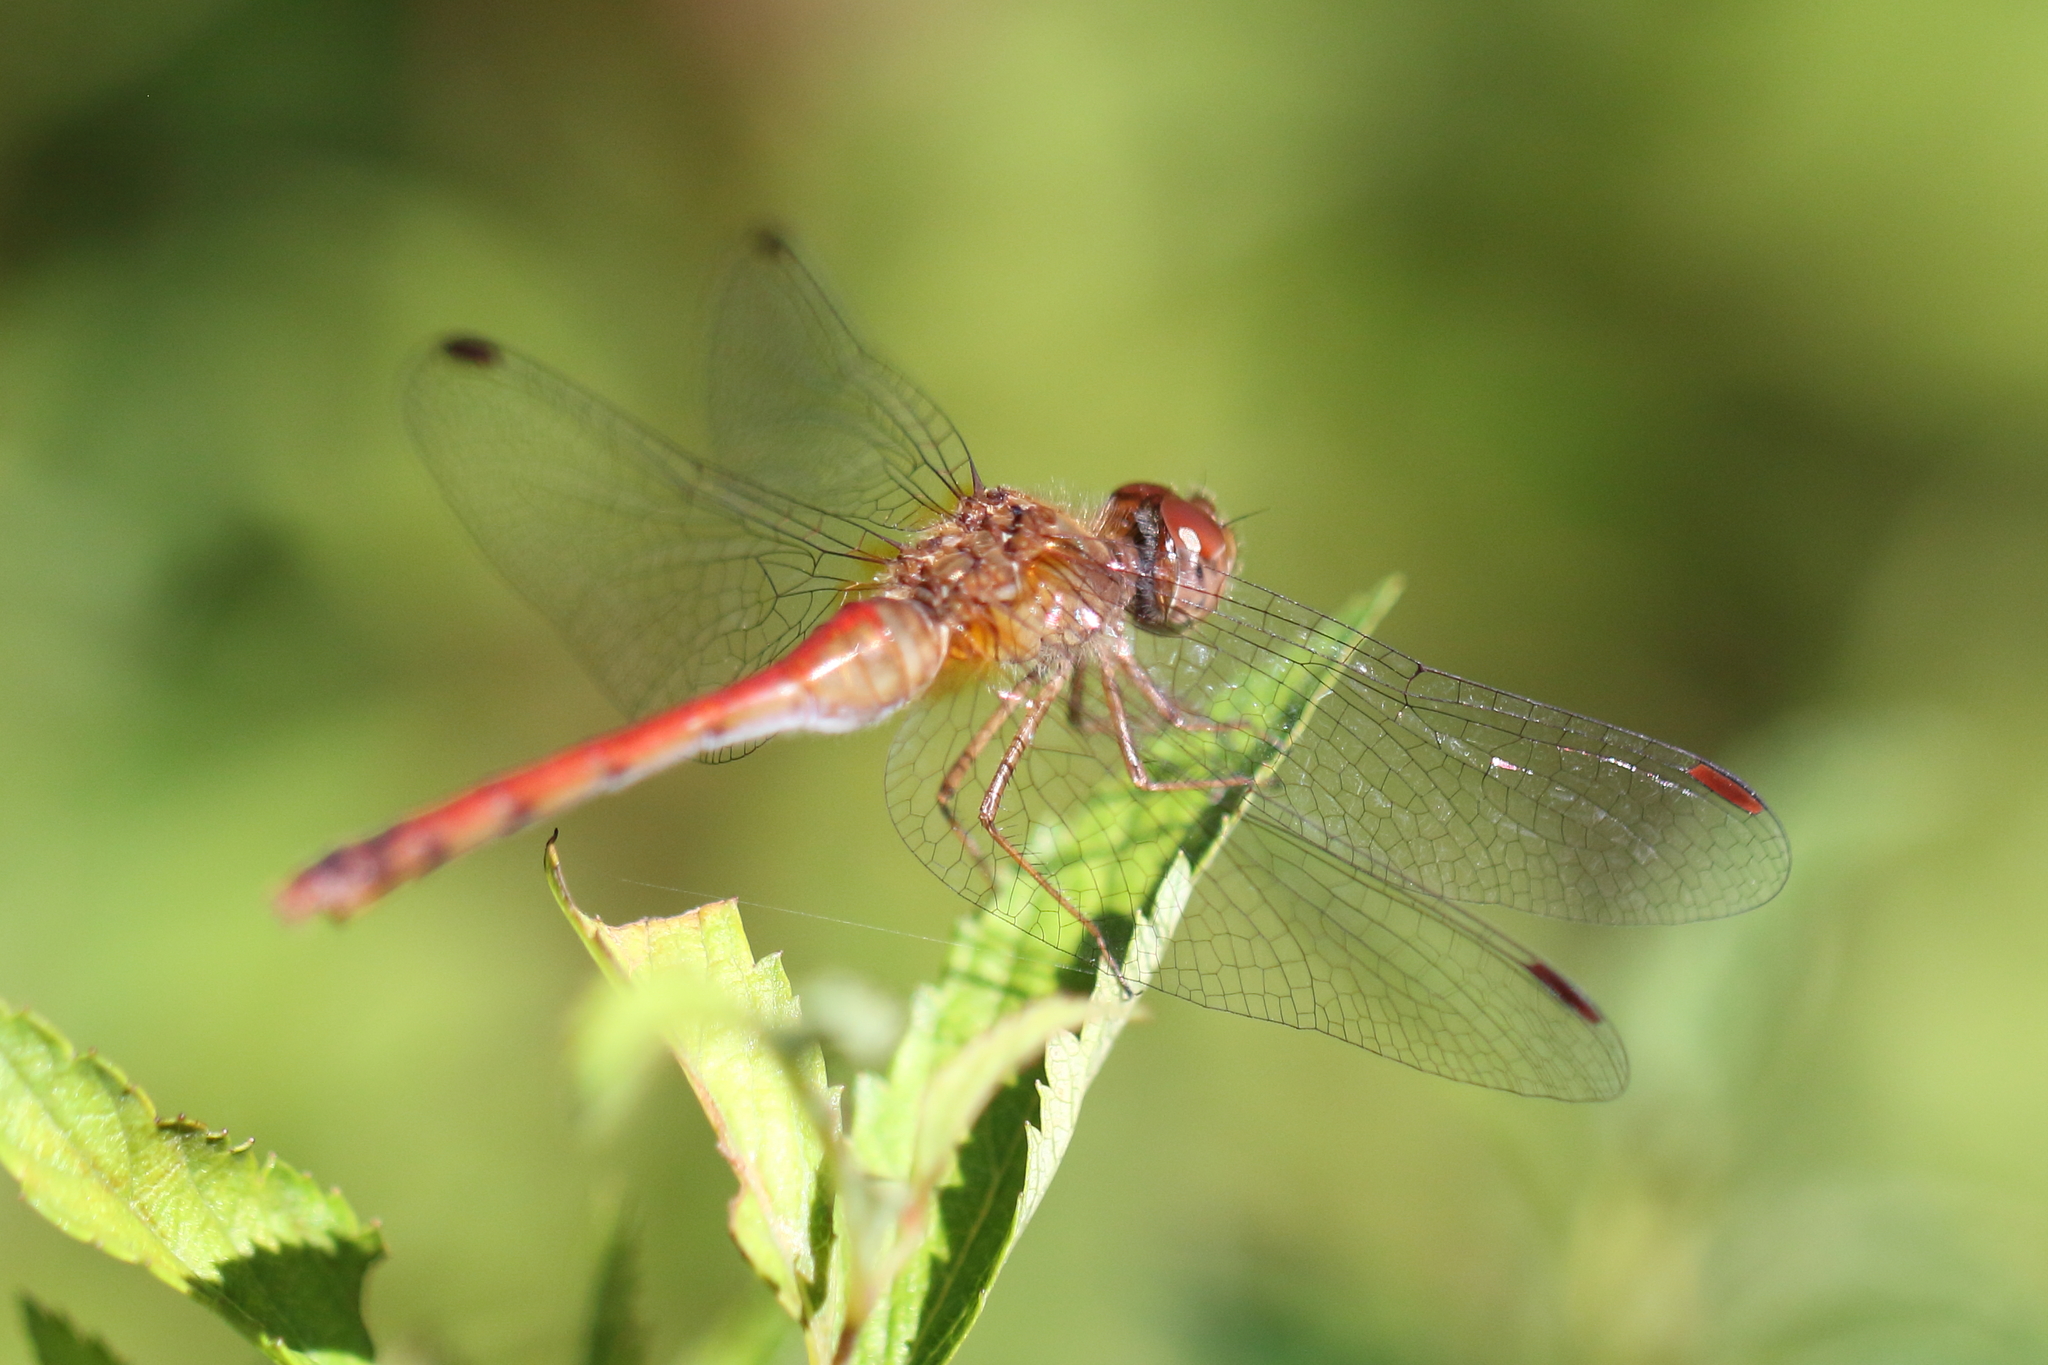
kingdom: Animalia
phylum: Arthropoda
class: Insecta
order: Odonata
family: Libellulidae
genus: Sympetrum
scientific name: Sympetrum vicinum
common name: Autumn meadowhawk
